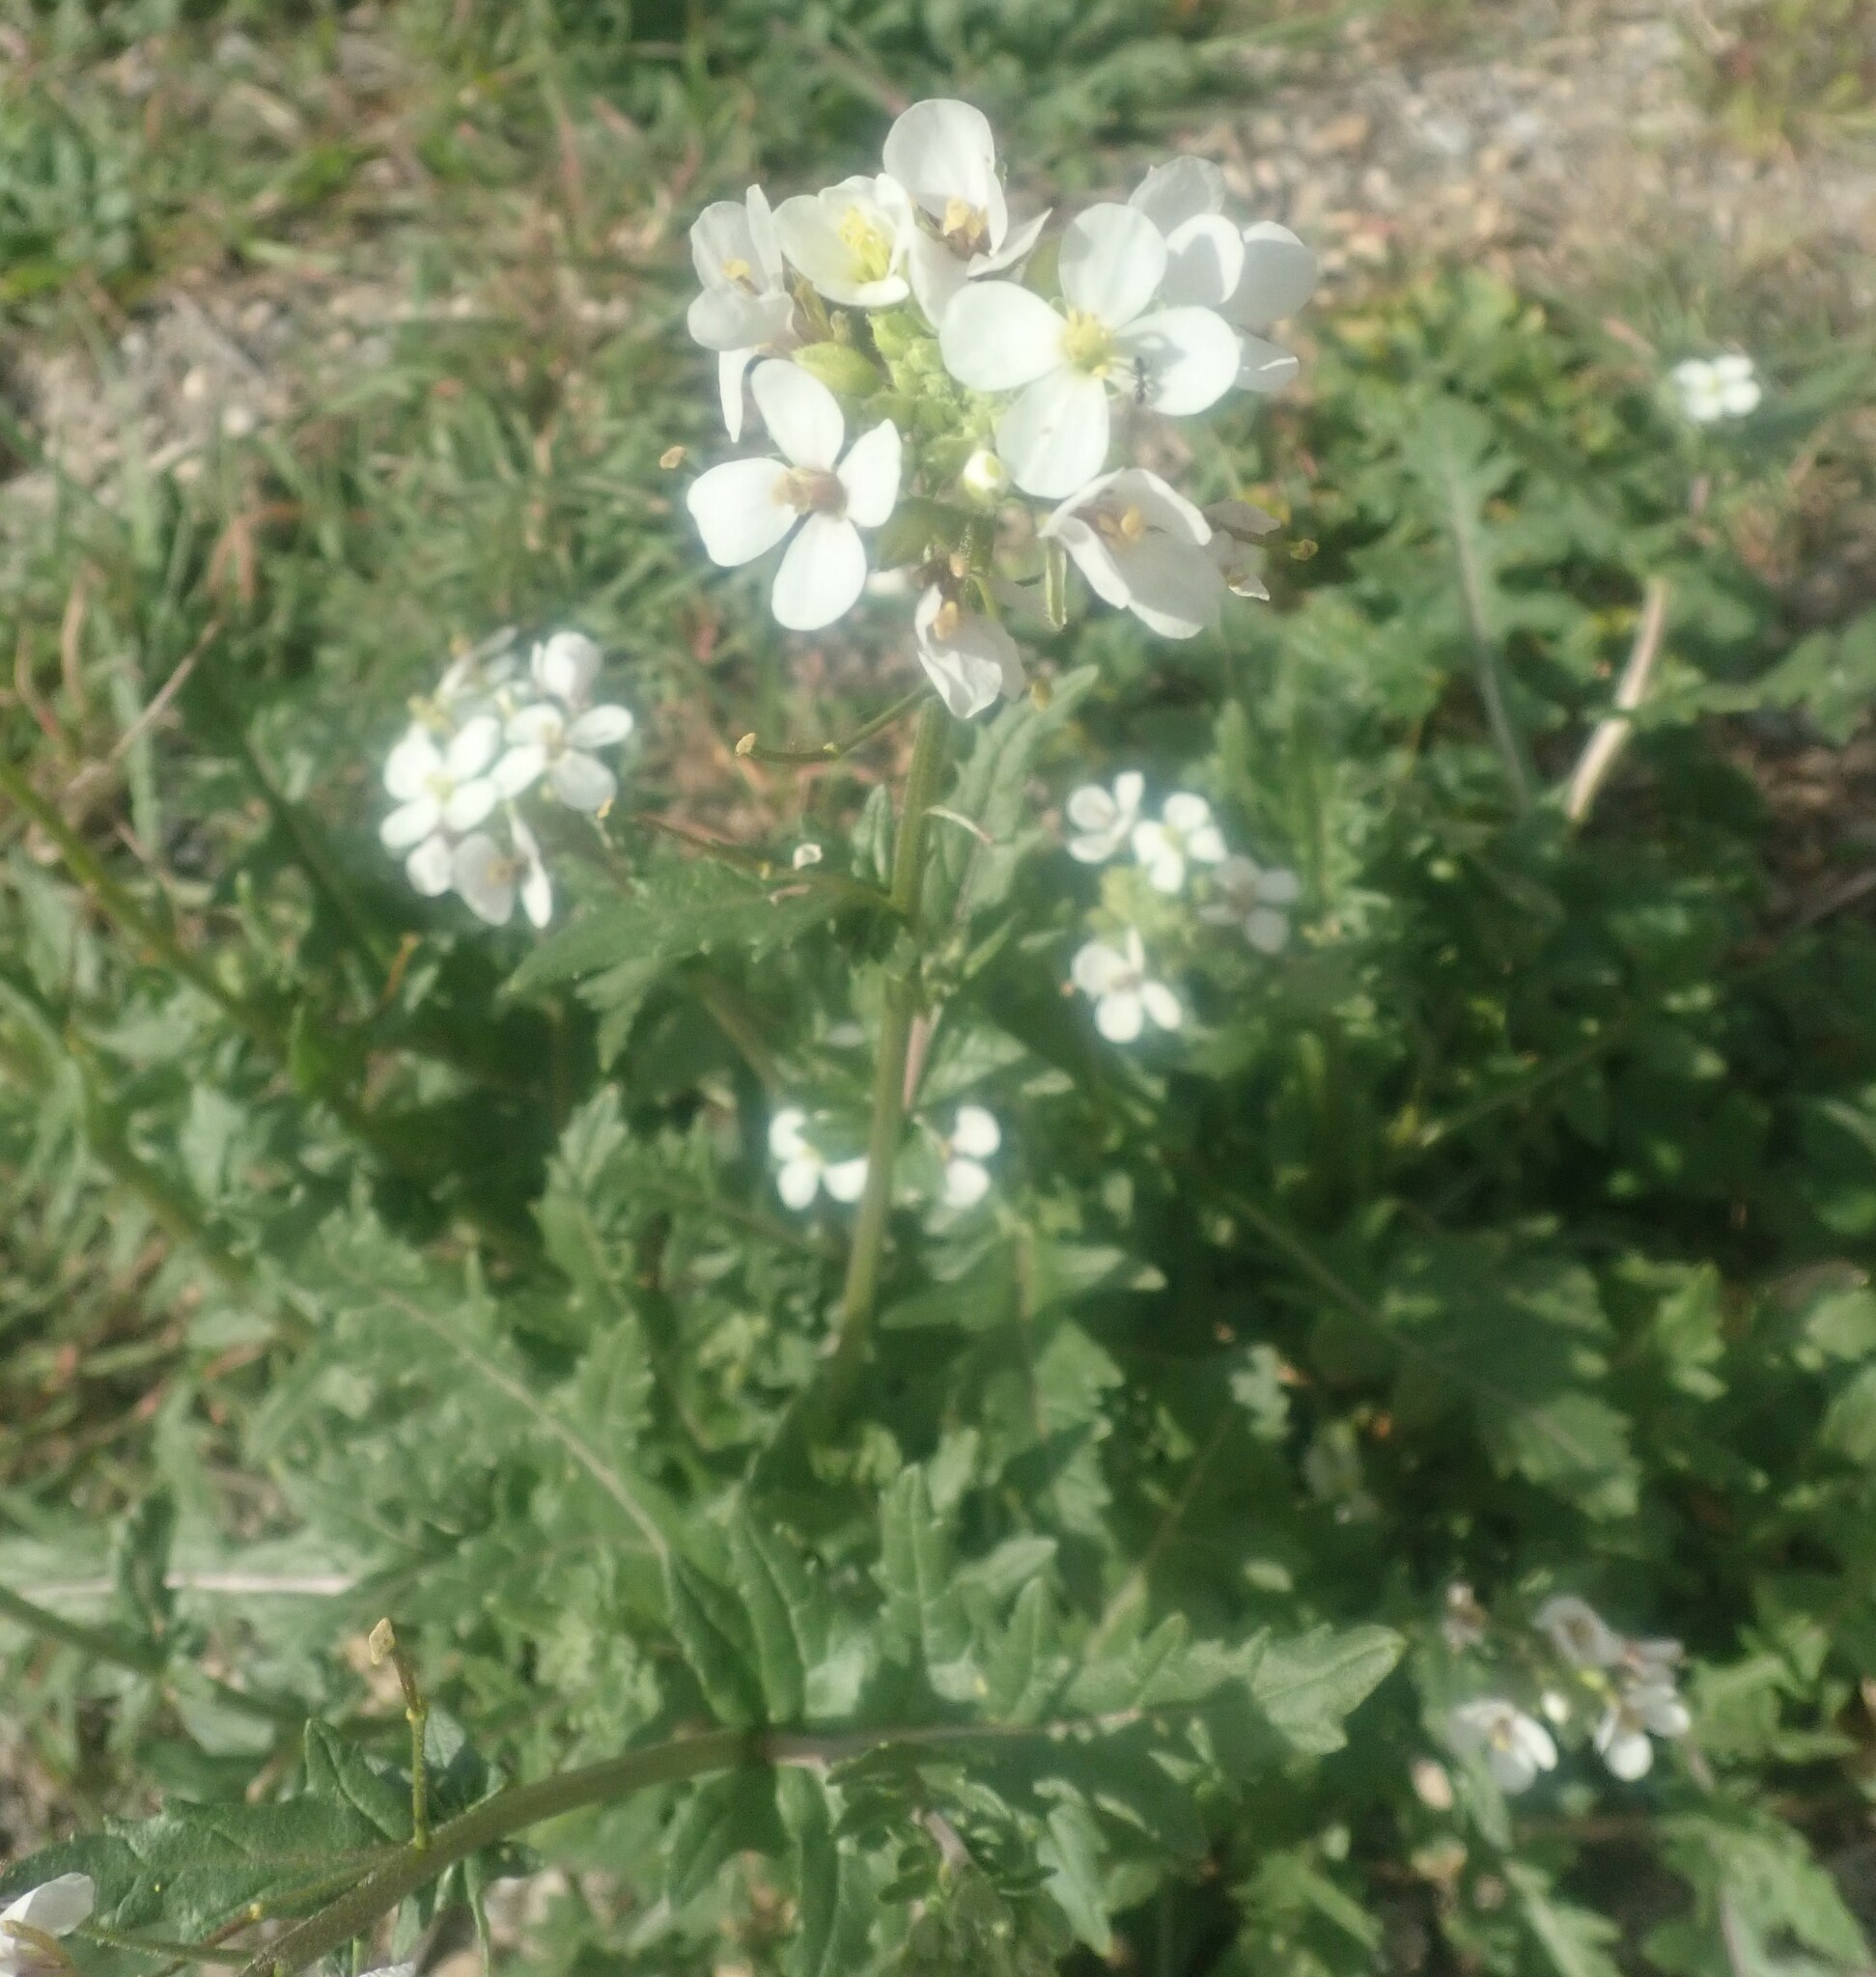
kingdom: Plantae
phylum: Tracheophyta
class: Magnoliopsida
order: Brassicales
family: Brassicaceae
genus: Diplotaxis
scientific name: Diplotaxis erucoides
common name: White rocket
